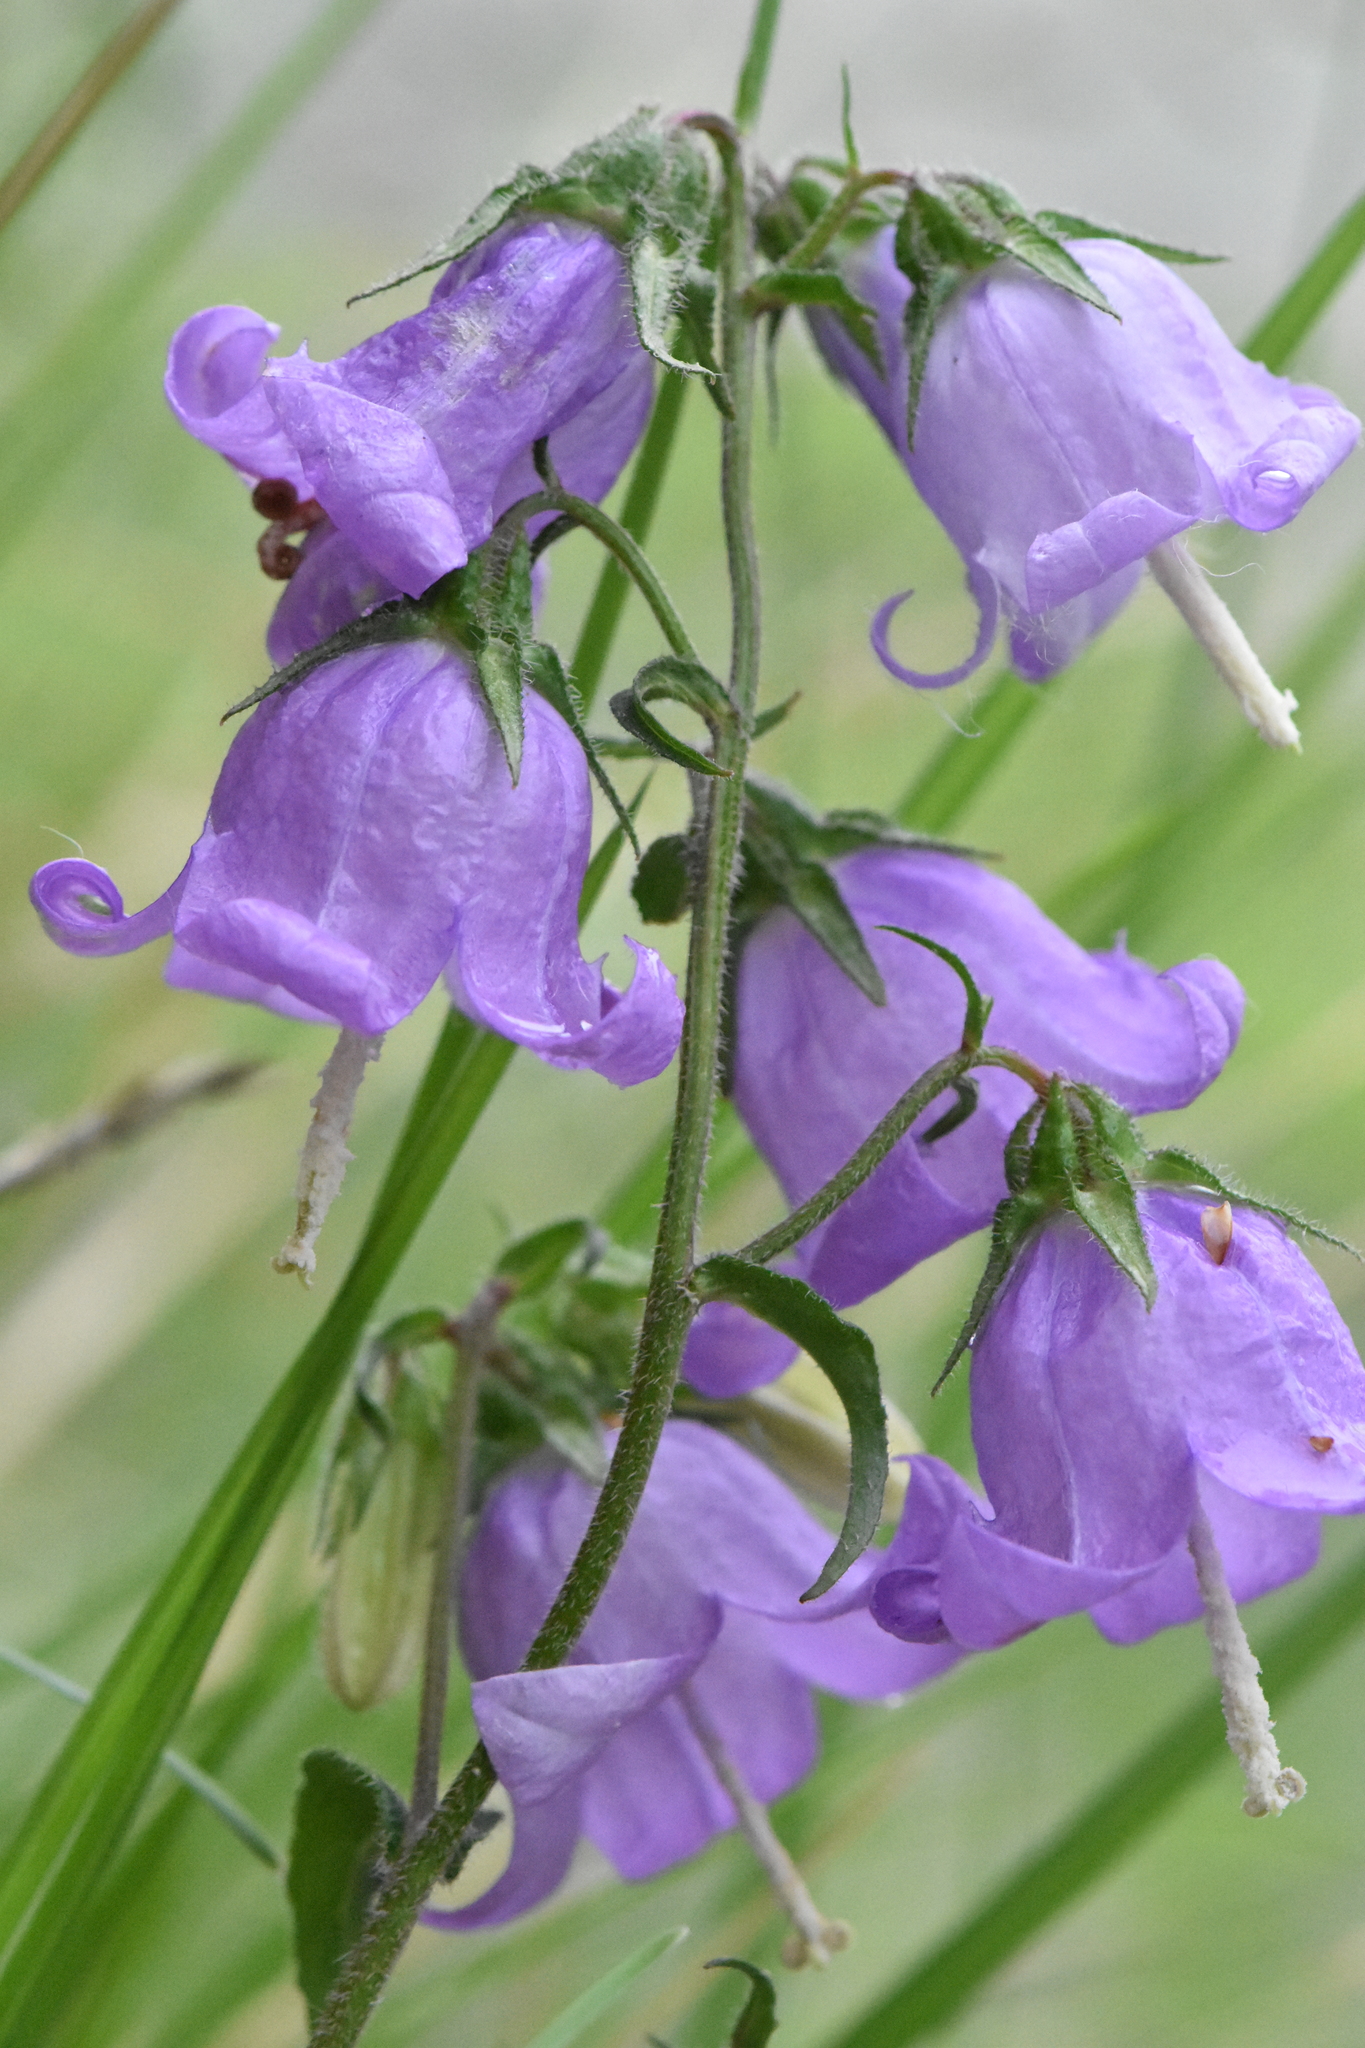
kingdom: Plantae
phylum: Tracheophyta
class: Magnoliopsida
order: Asterales
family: Campanulaceae
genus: Campanula
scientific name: Campanula rapunculoides
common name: Creeping bellflower
